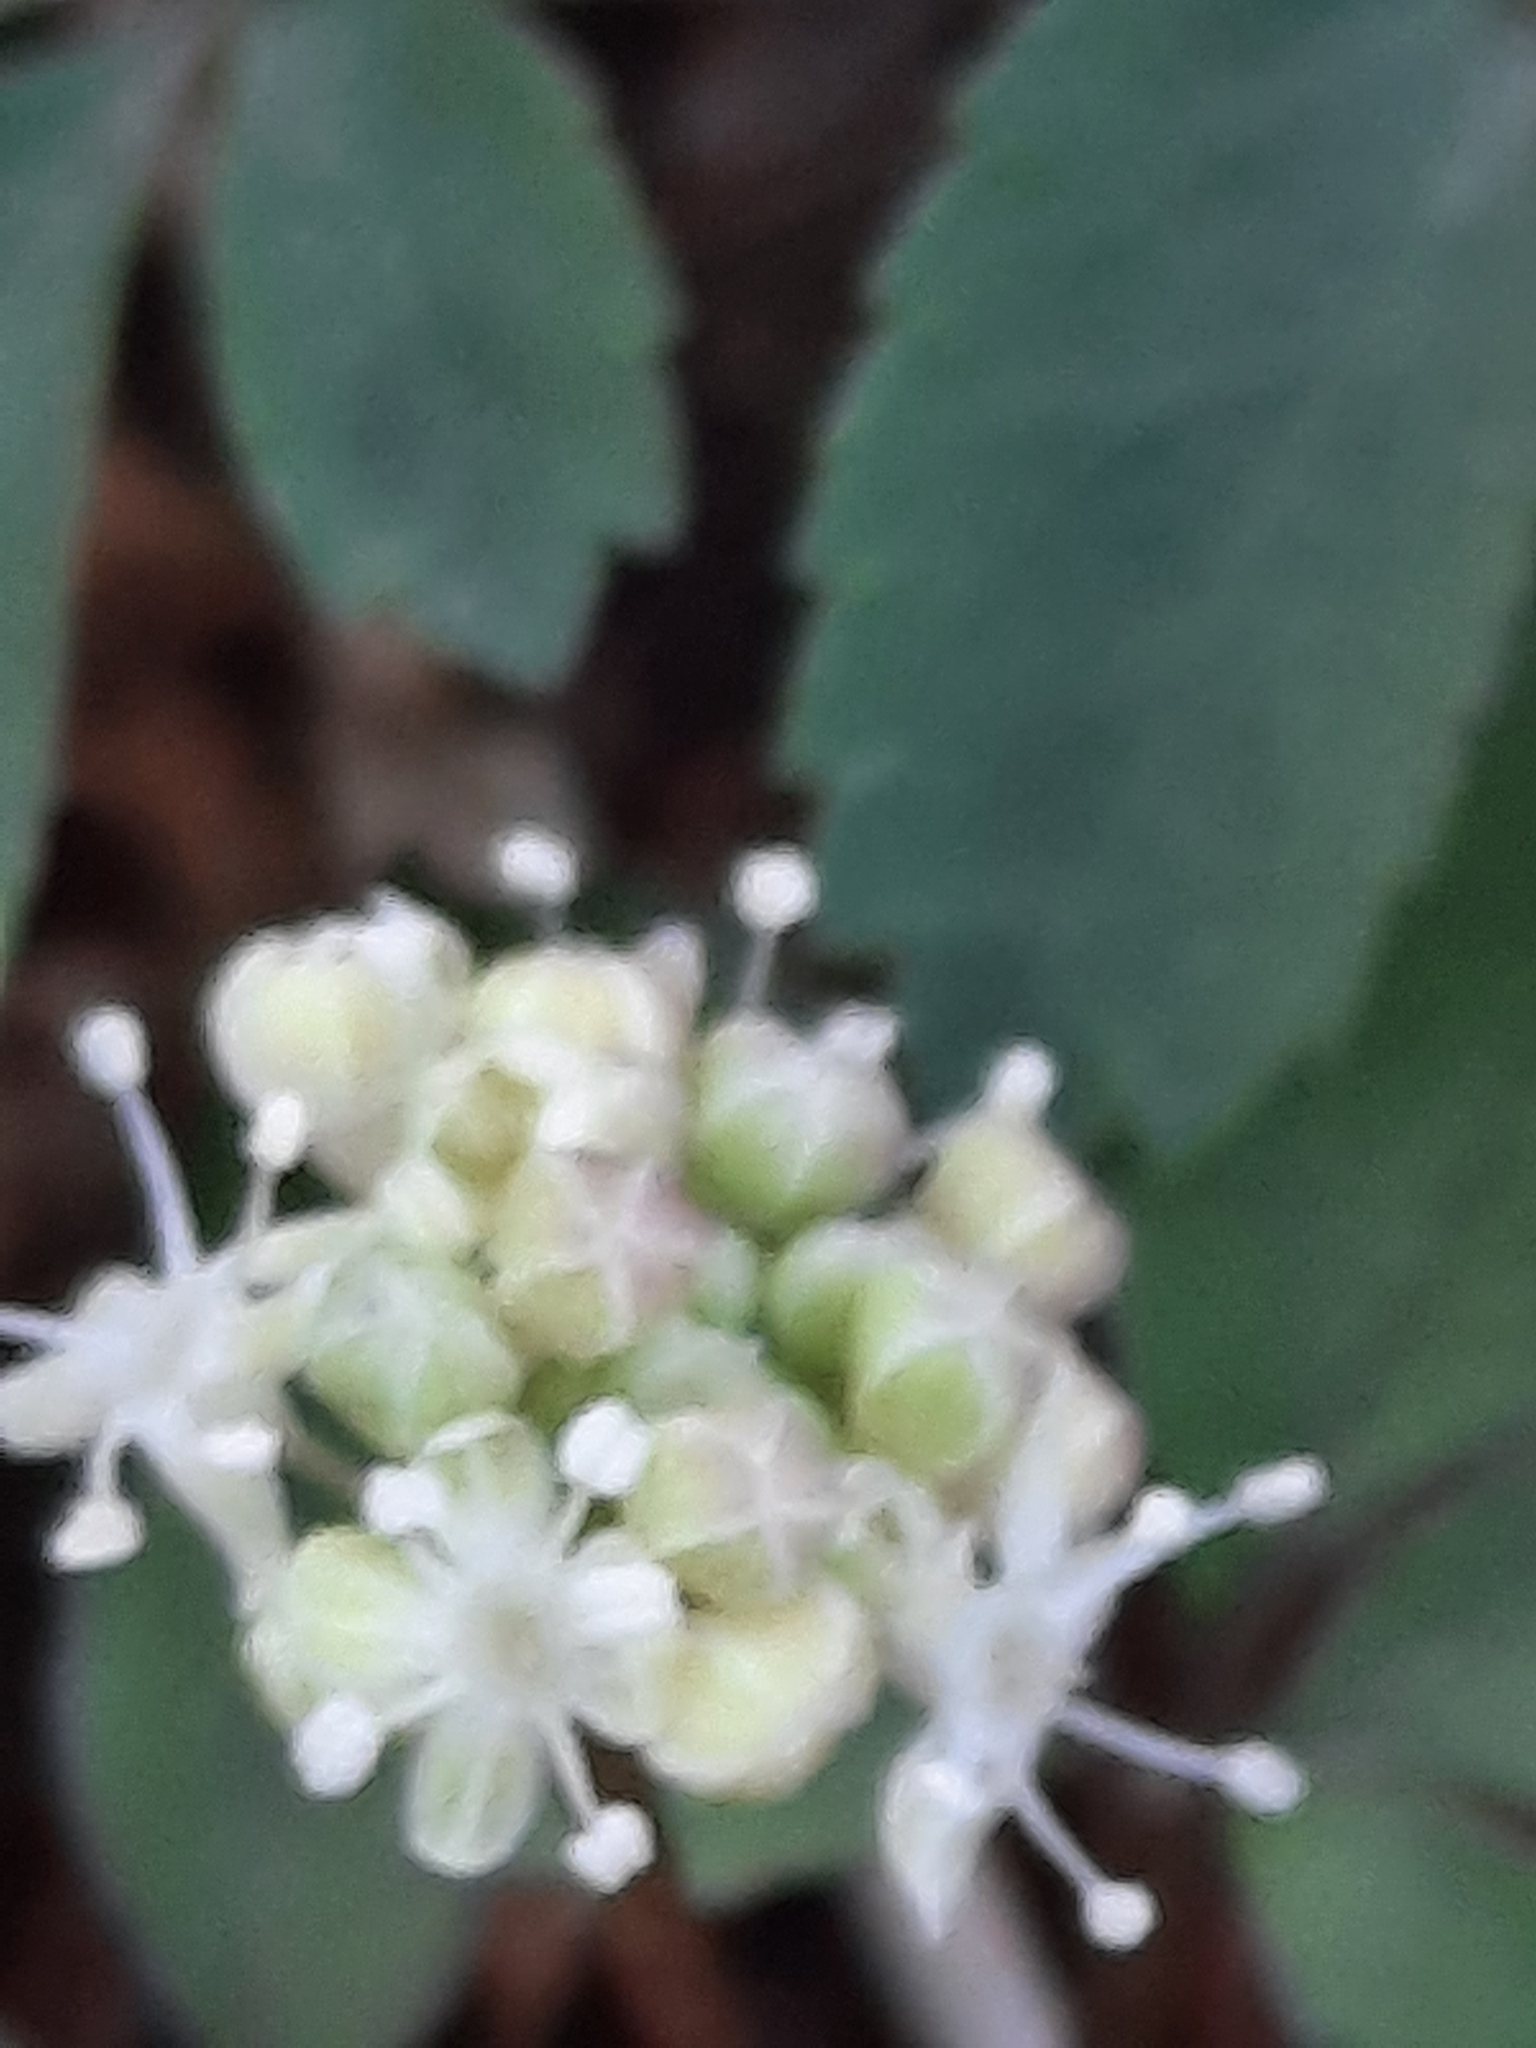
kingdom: Plantae
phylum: Tracheophyta
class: Magnoliopsida
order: Apiales
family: Araliaceae
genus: Panax
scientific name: Panax trifolius
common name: Dwarf ginseng
